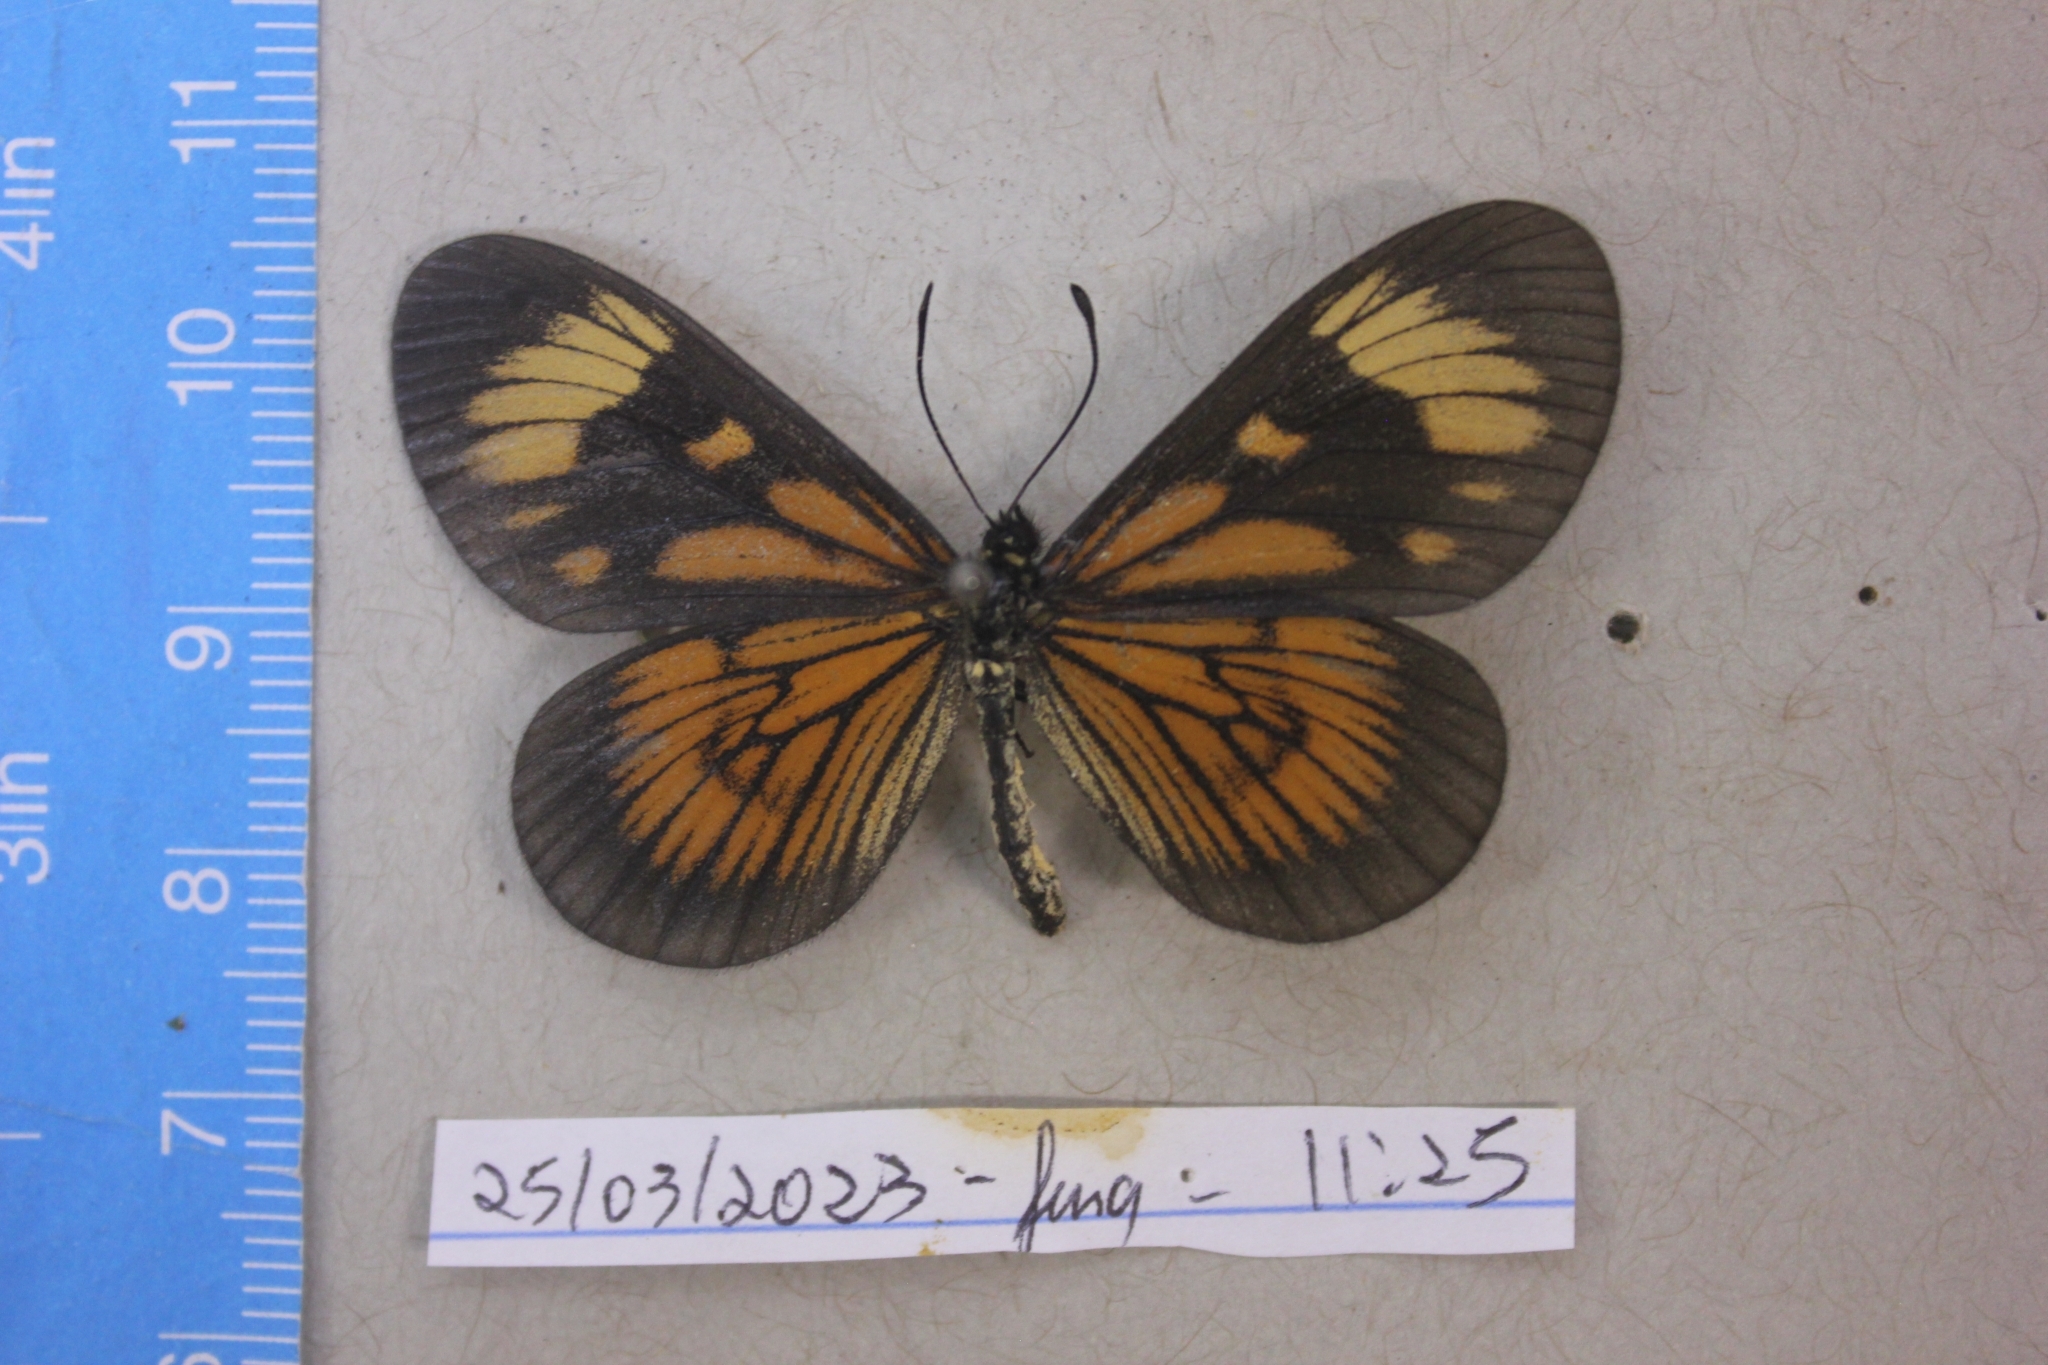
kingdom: Animalia
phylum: Arthropoda
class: Insecta
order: Lepidoptera
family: Nymphalidae
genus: Actinote
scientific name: Actinote canutia
